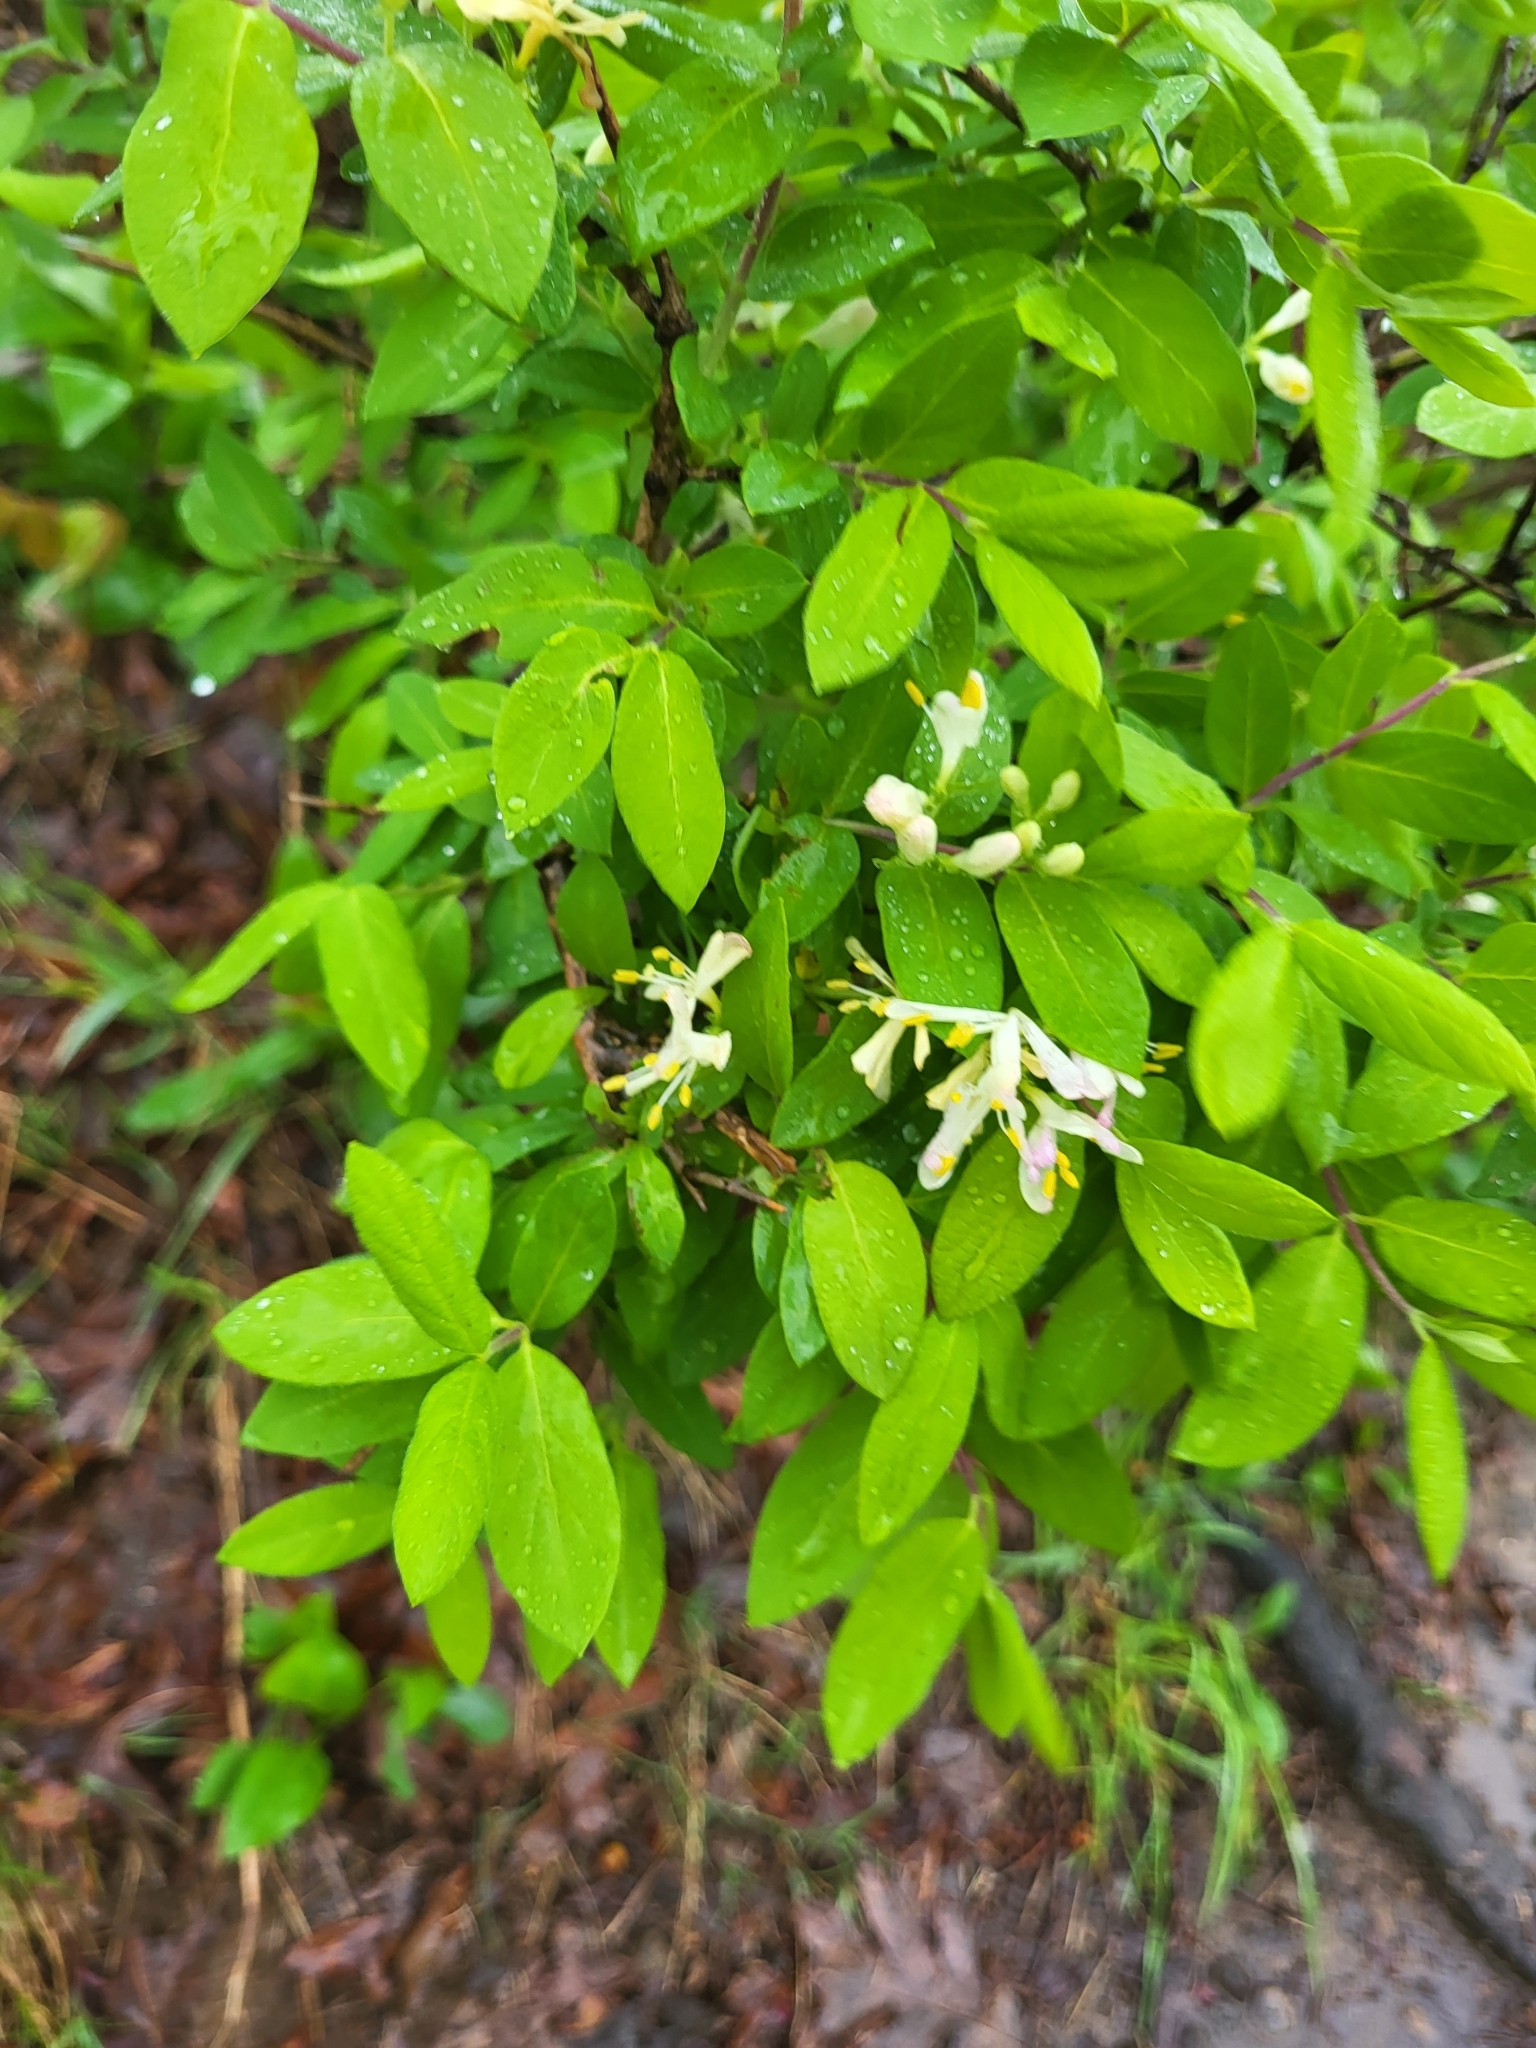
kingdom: Plantae
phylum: Tracheophyta
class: Magnoliopsida
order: Dipsacales
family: Caprifoliaceae
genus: Lonicera
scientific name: Lonicera morrowii
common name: Morrow's honeysuckle
